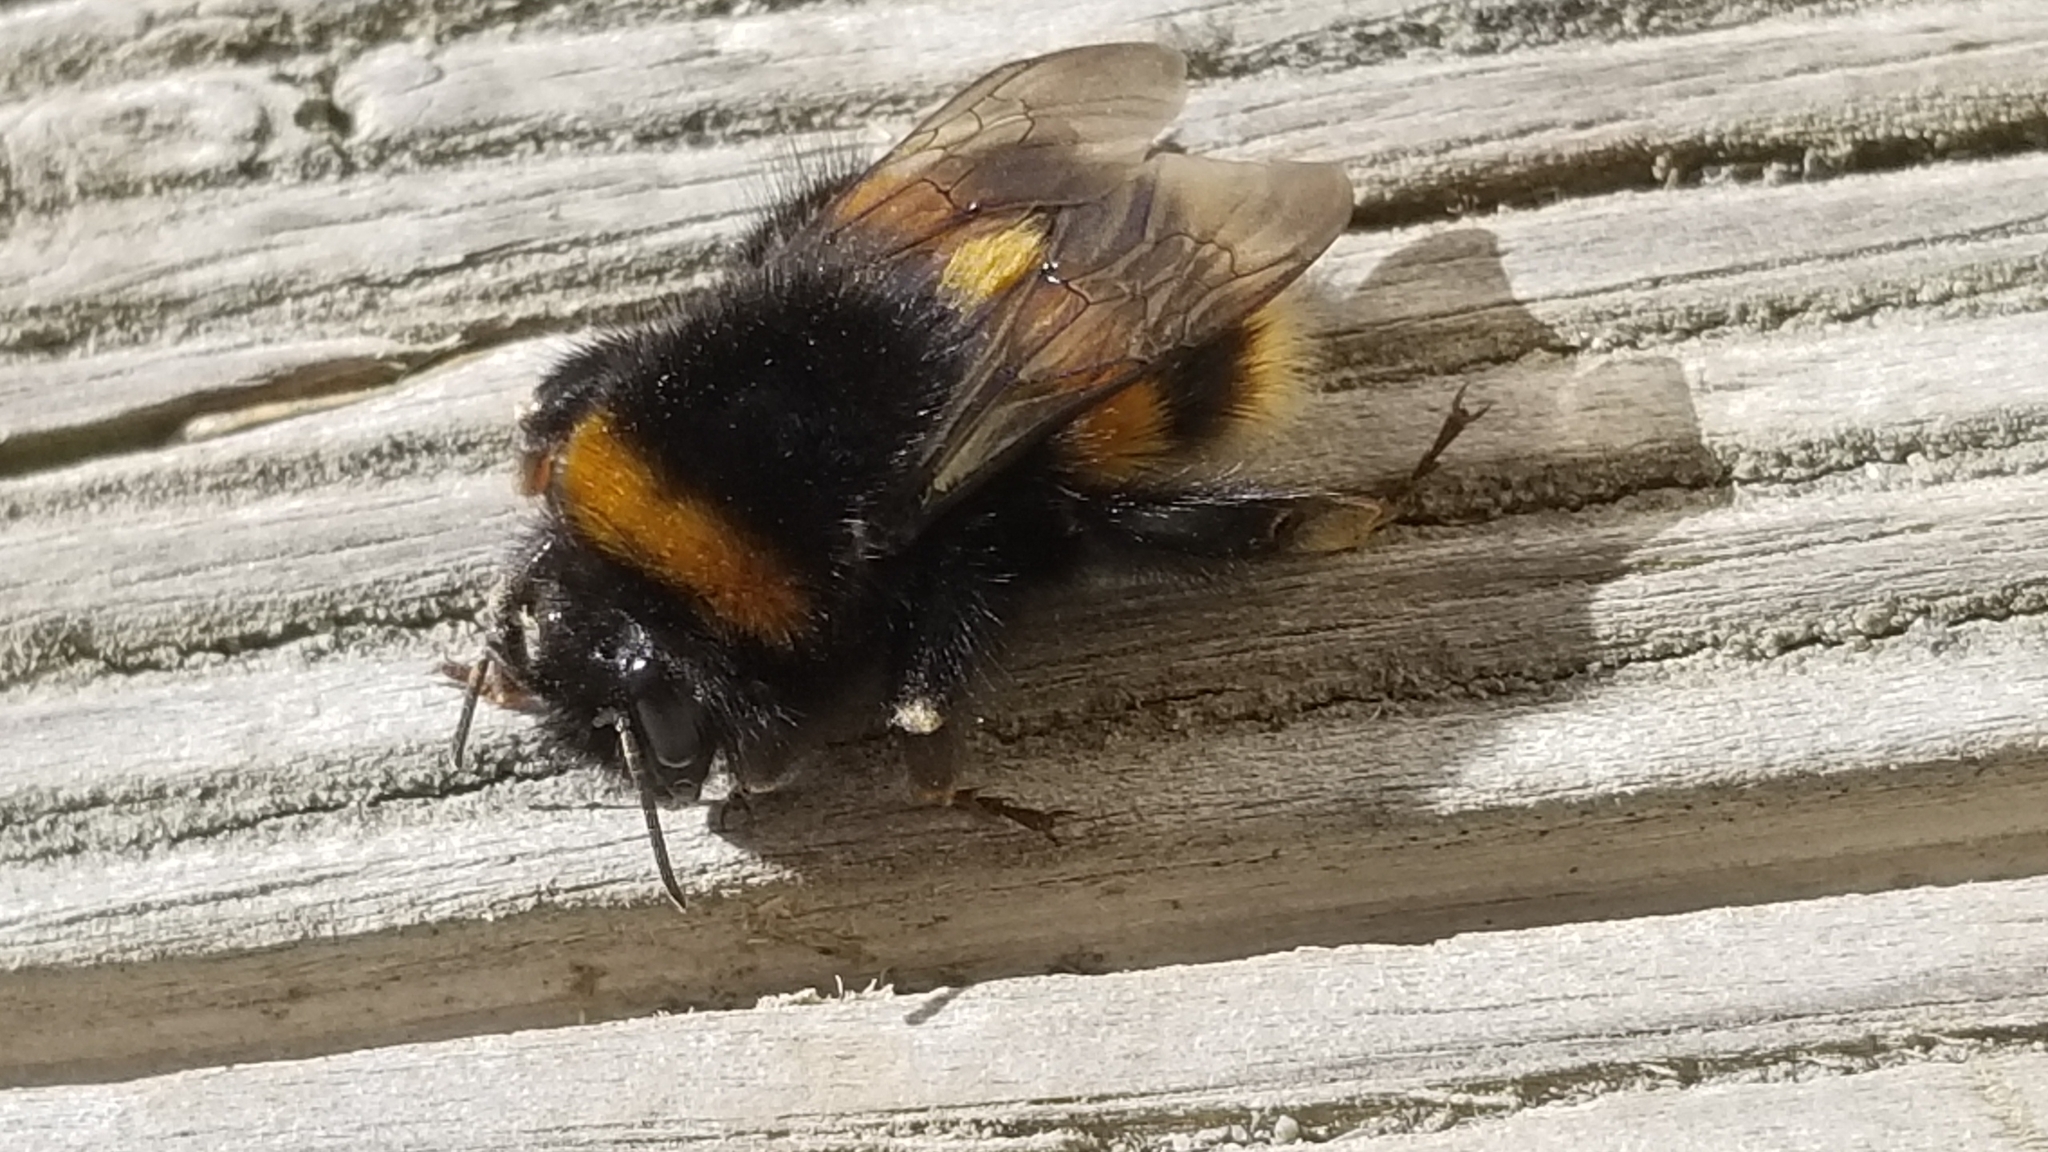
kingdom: Animalia
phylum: Arthropoda
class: Insecta
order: Hymenoptera
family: Apidae
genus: Bombus
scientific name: Bombus terrestris
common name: Buff-tailed bumblebee
